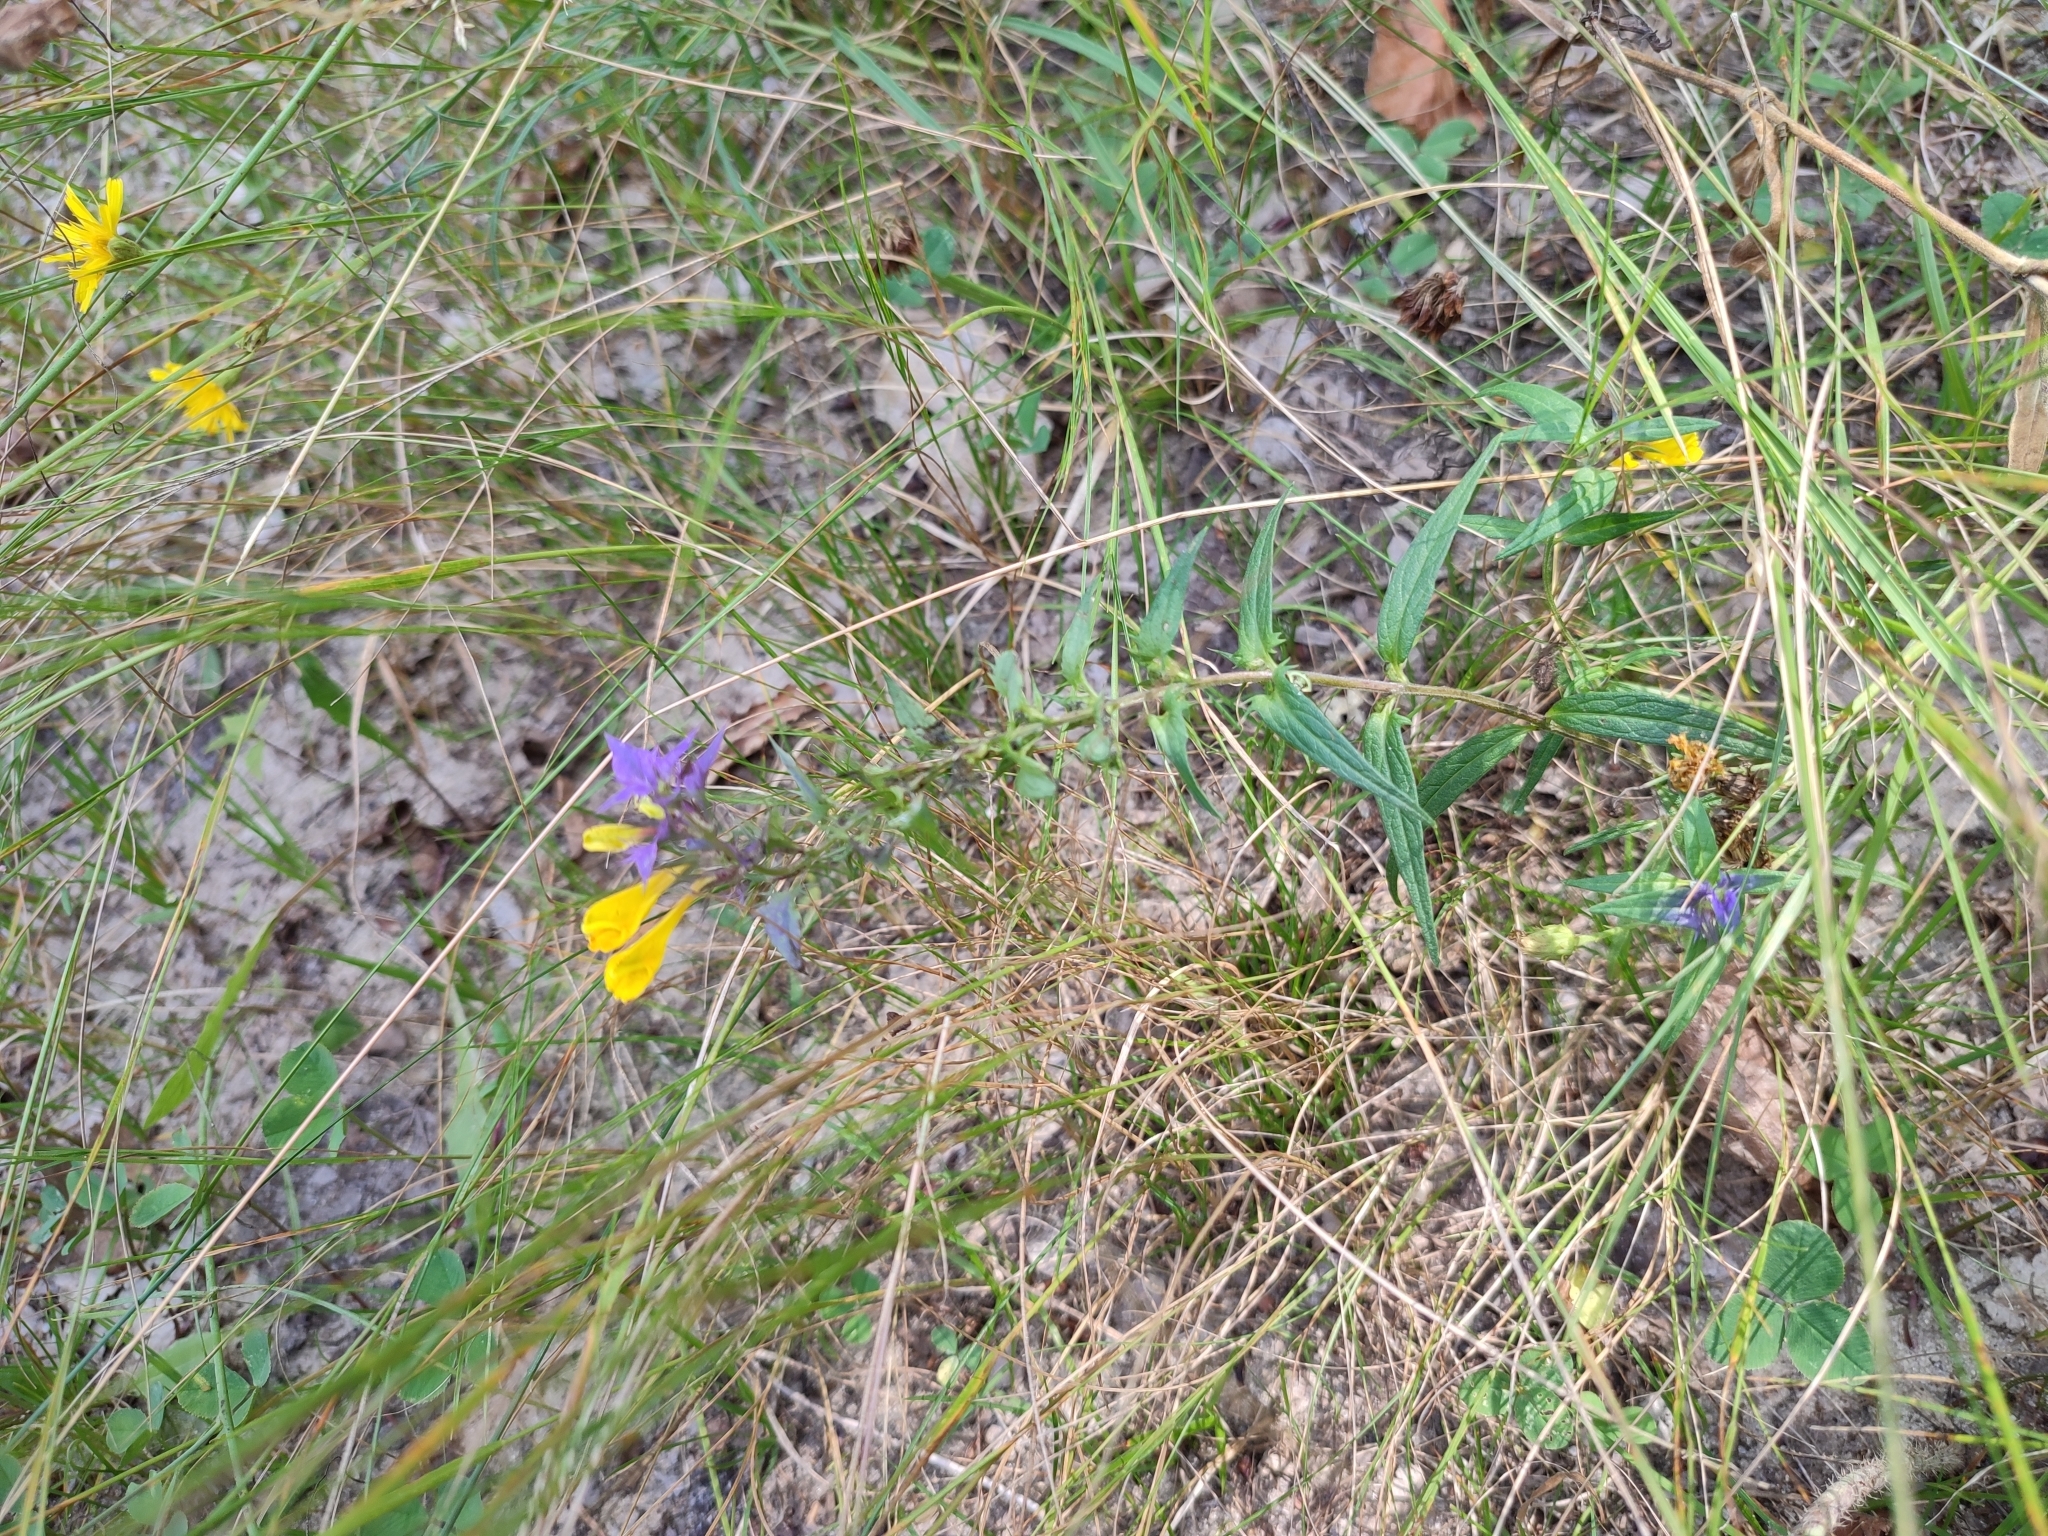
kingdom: Plantae
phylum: Tracheophyta
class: Magnoliopsida
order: Lamiales
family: Orobanchaceae
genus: Melampyrum
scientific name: Melampyrum nemorosum
